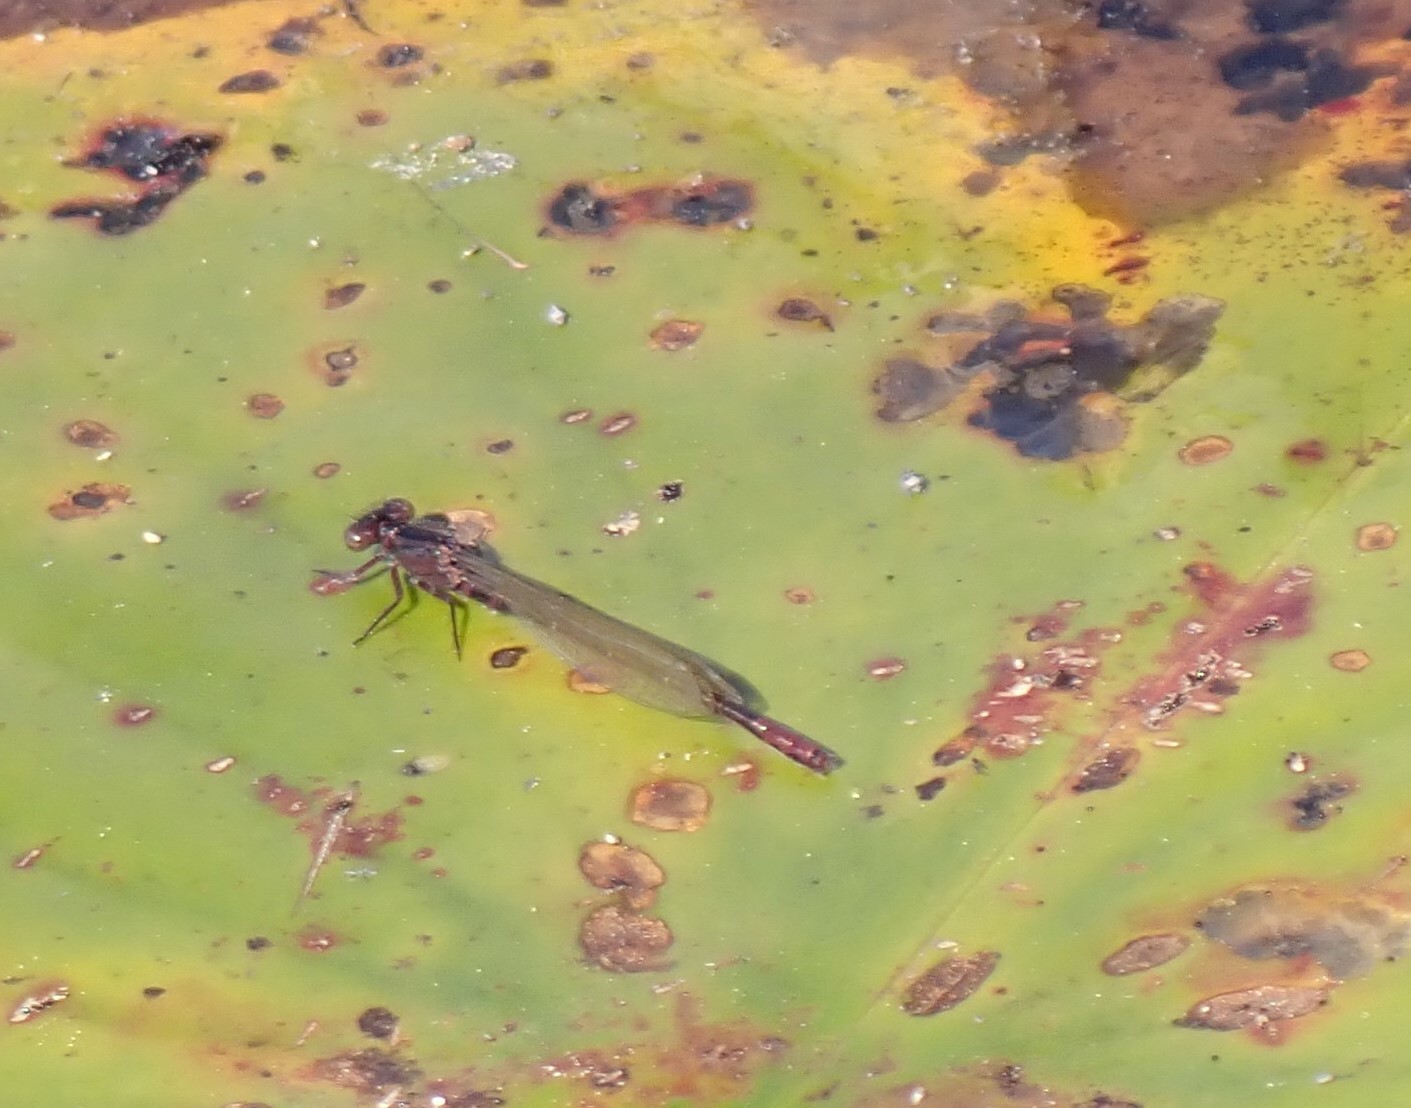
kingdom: Animalia
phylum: Arthropoda
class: Insecta
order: Odonata
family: Coenagrionidae
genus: Ischnura
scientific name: Ischnura kellicotti
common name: Lilypad forktail
